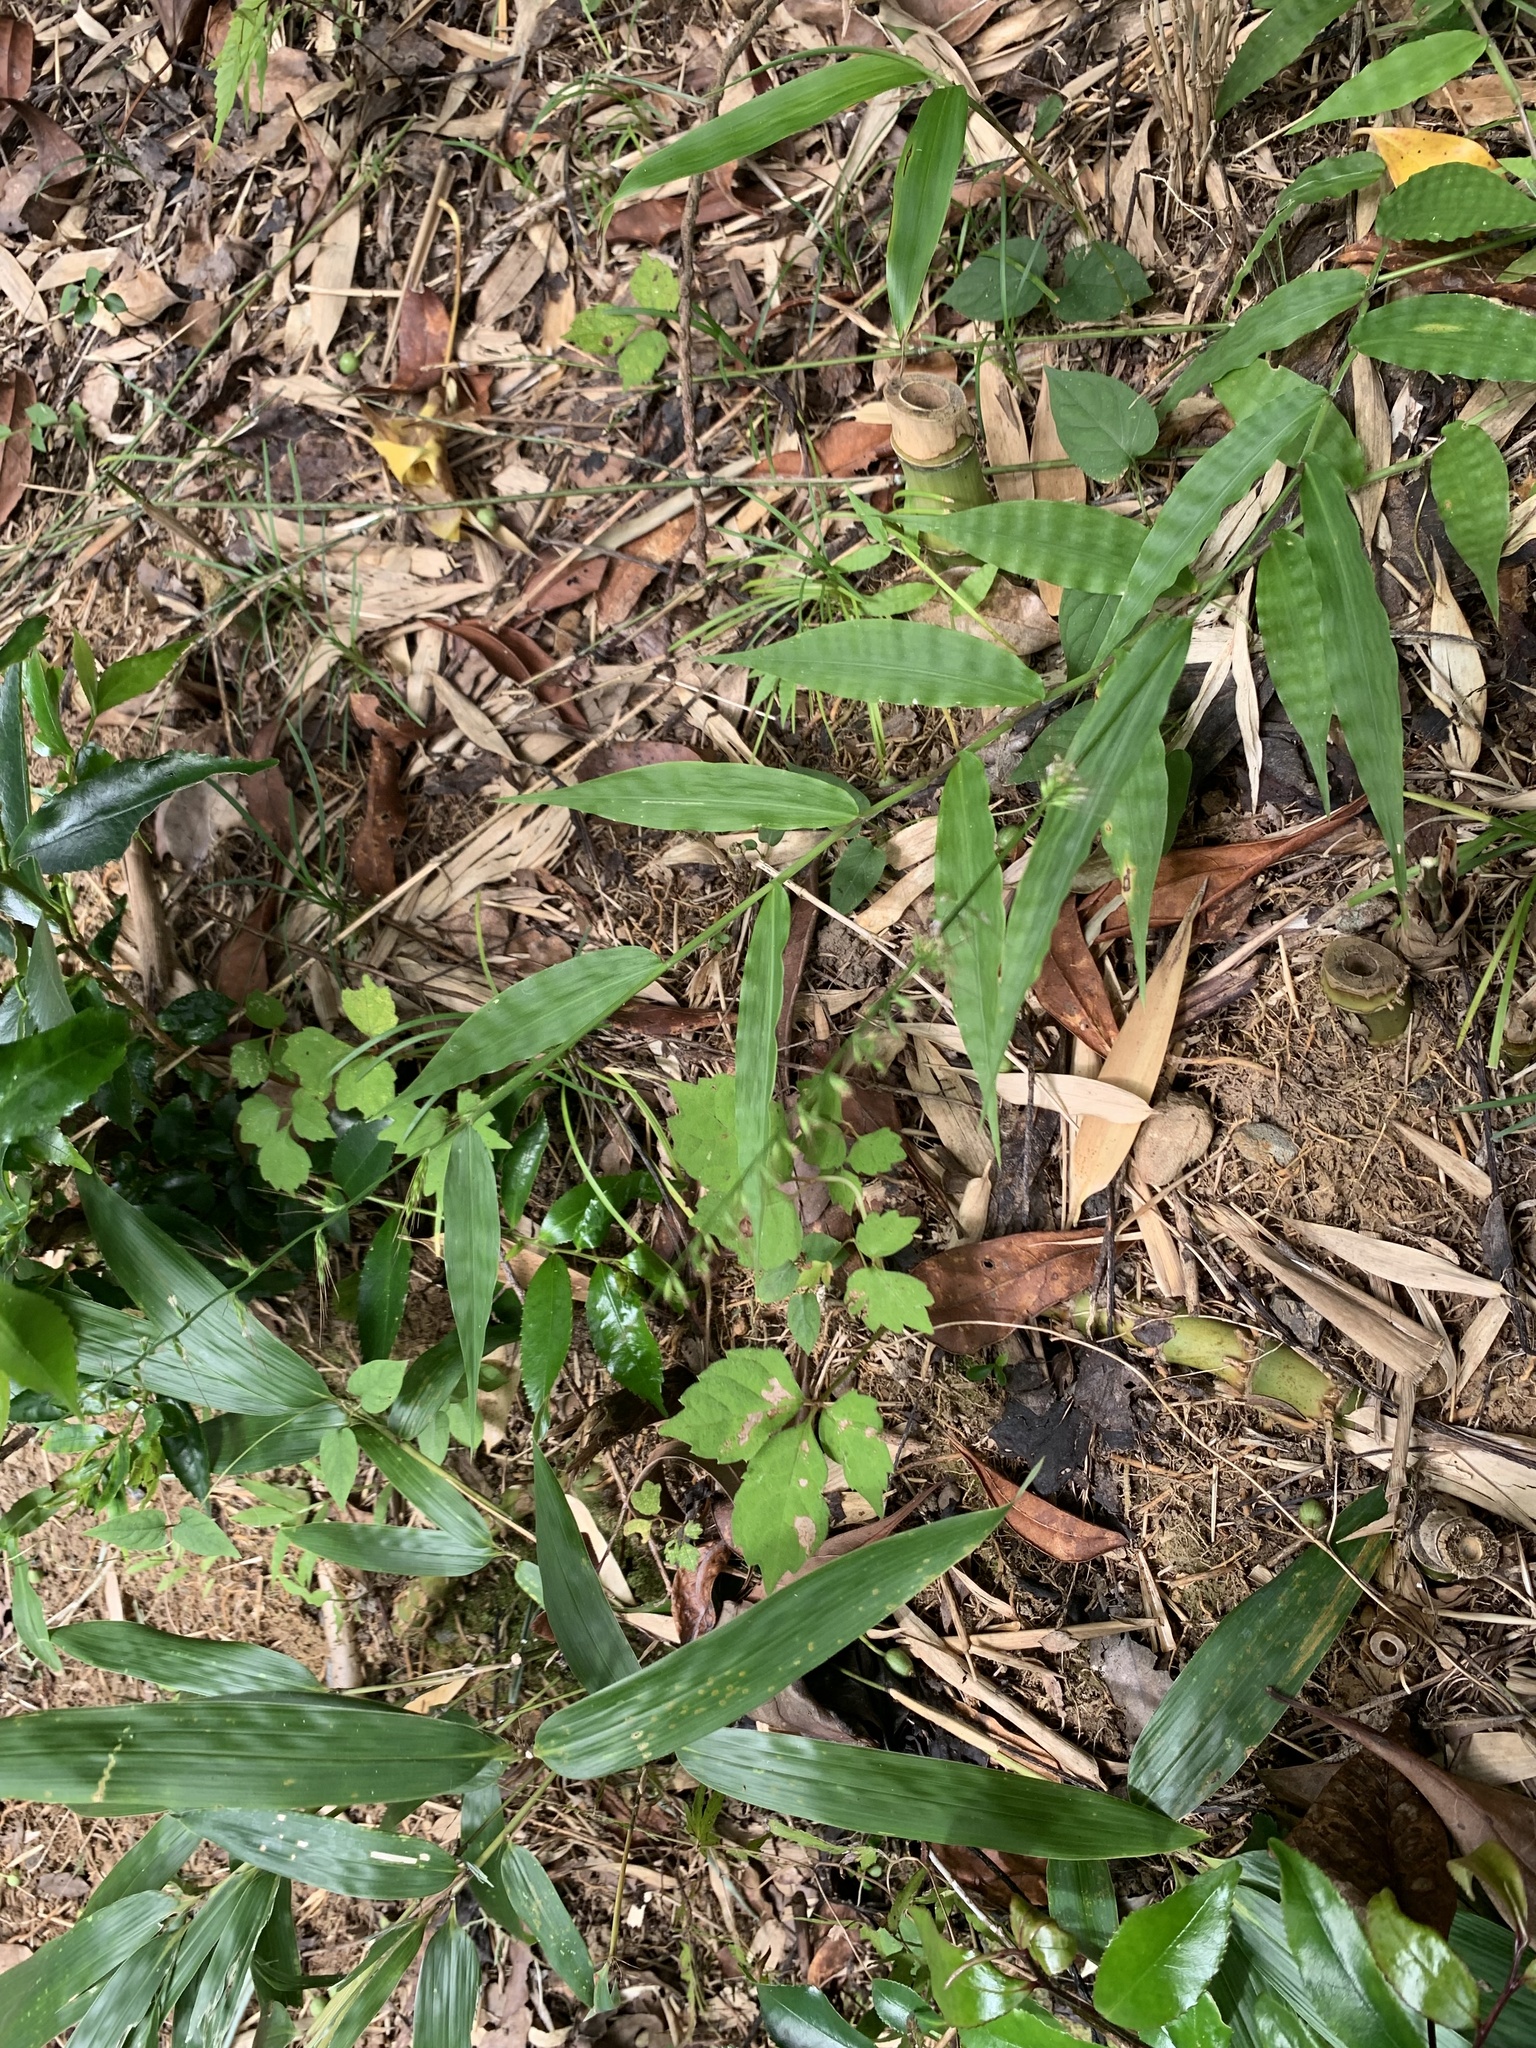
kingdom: Plantae
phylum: Tracheophyta
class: Liliopsida
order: Poales
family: Poaceae
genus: Oplismenus
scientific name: Oplismenus undulatifolius
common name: Wavyleaf basketgrass
